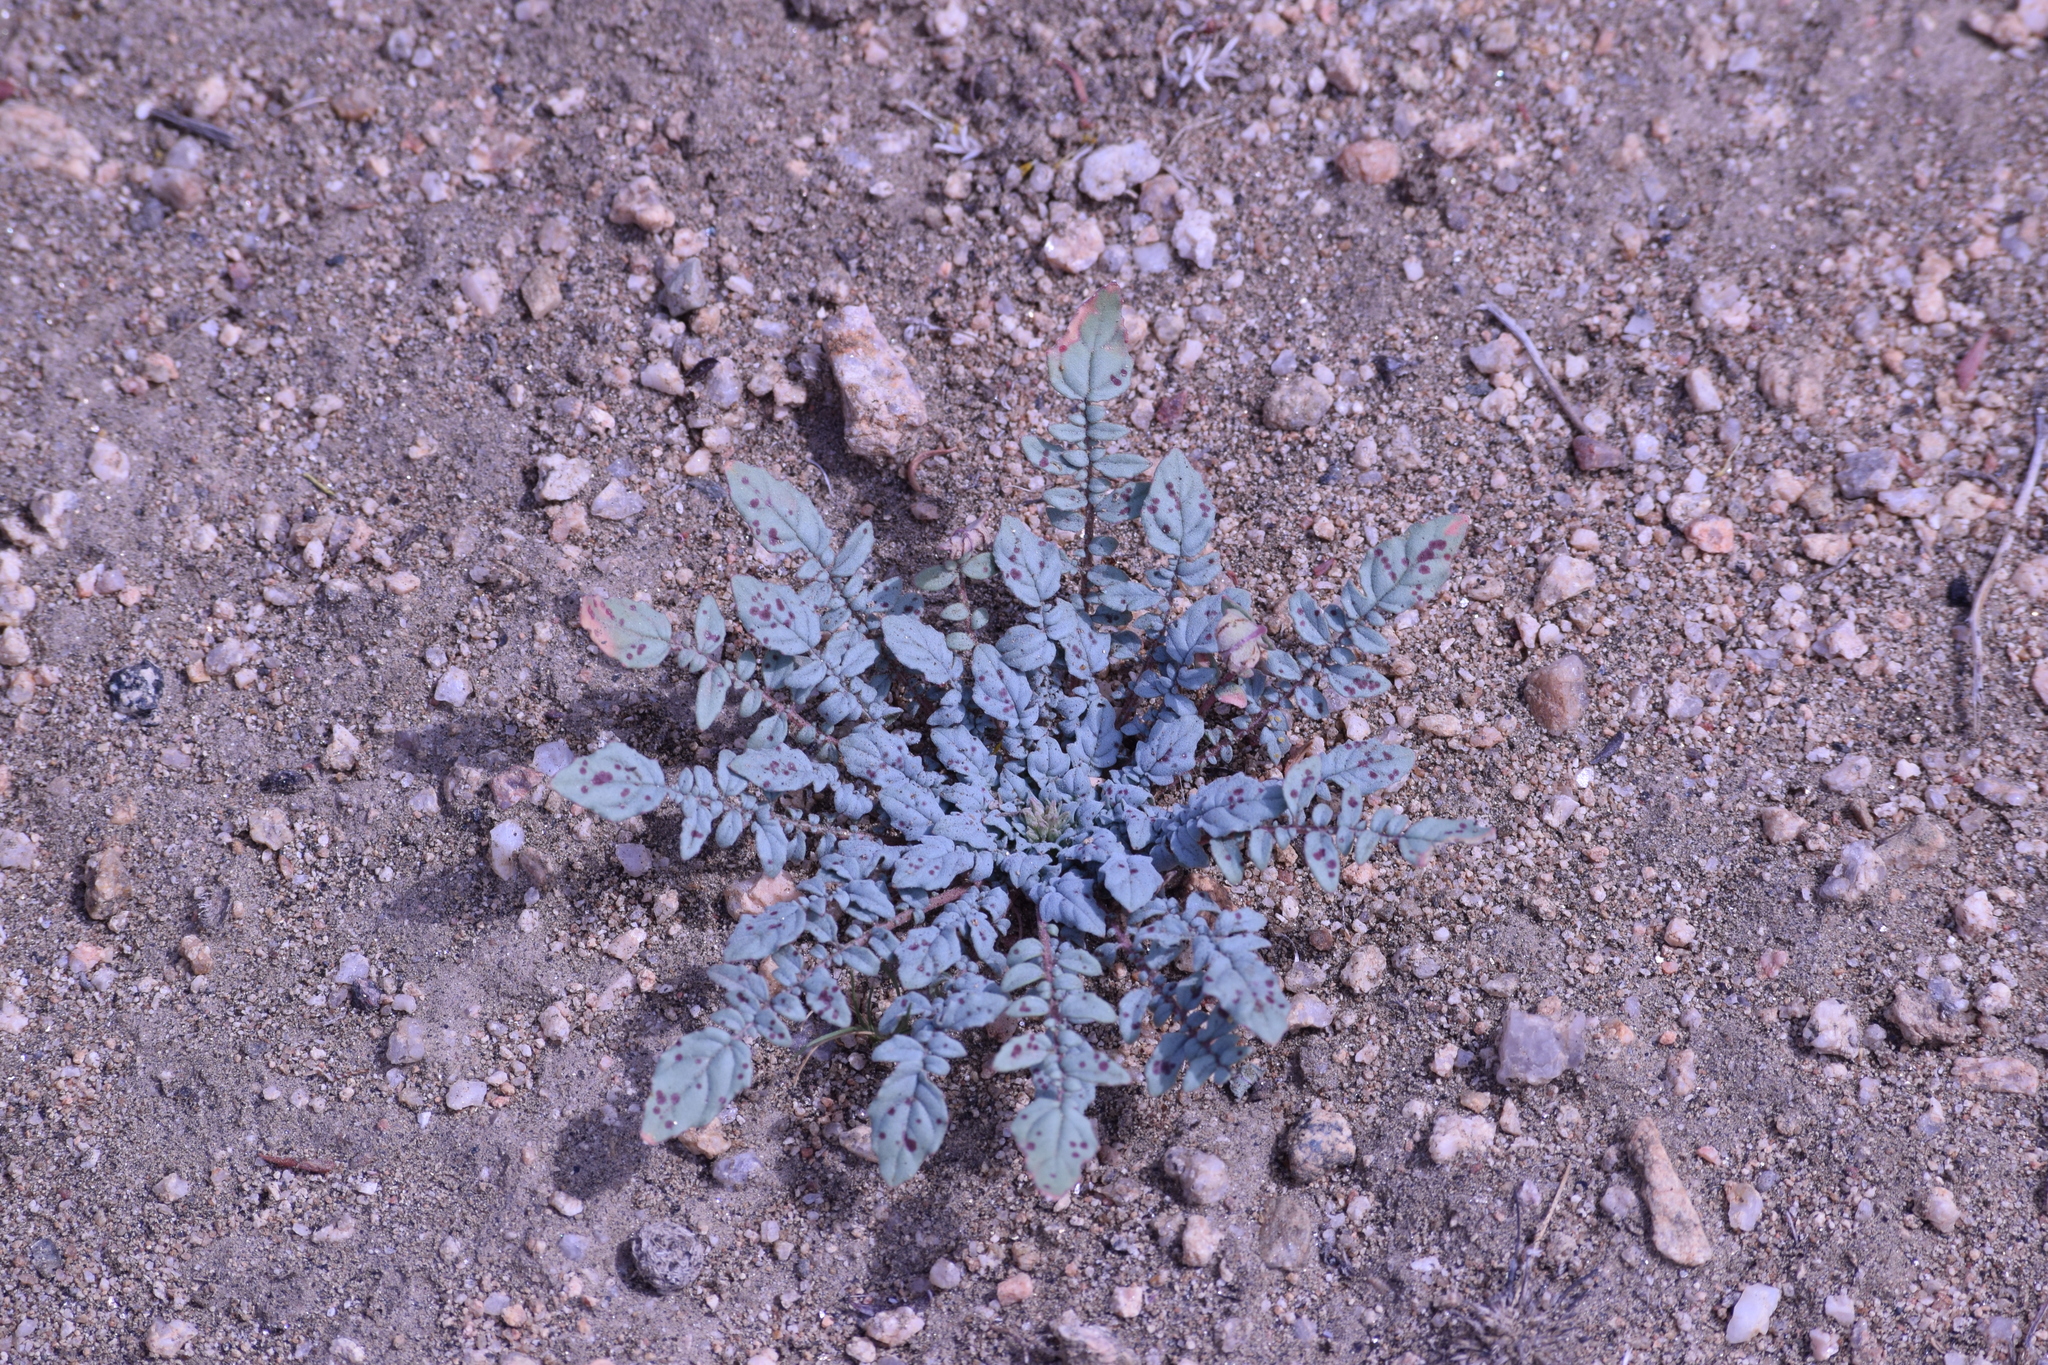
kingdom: Plantae
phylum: Tracheophyta
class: Magnoliopsida
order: Myrtales
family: Onagraceae
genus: Chylismia
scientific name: Chylismia claviformis
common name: Browneyes
